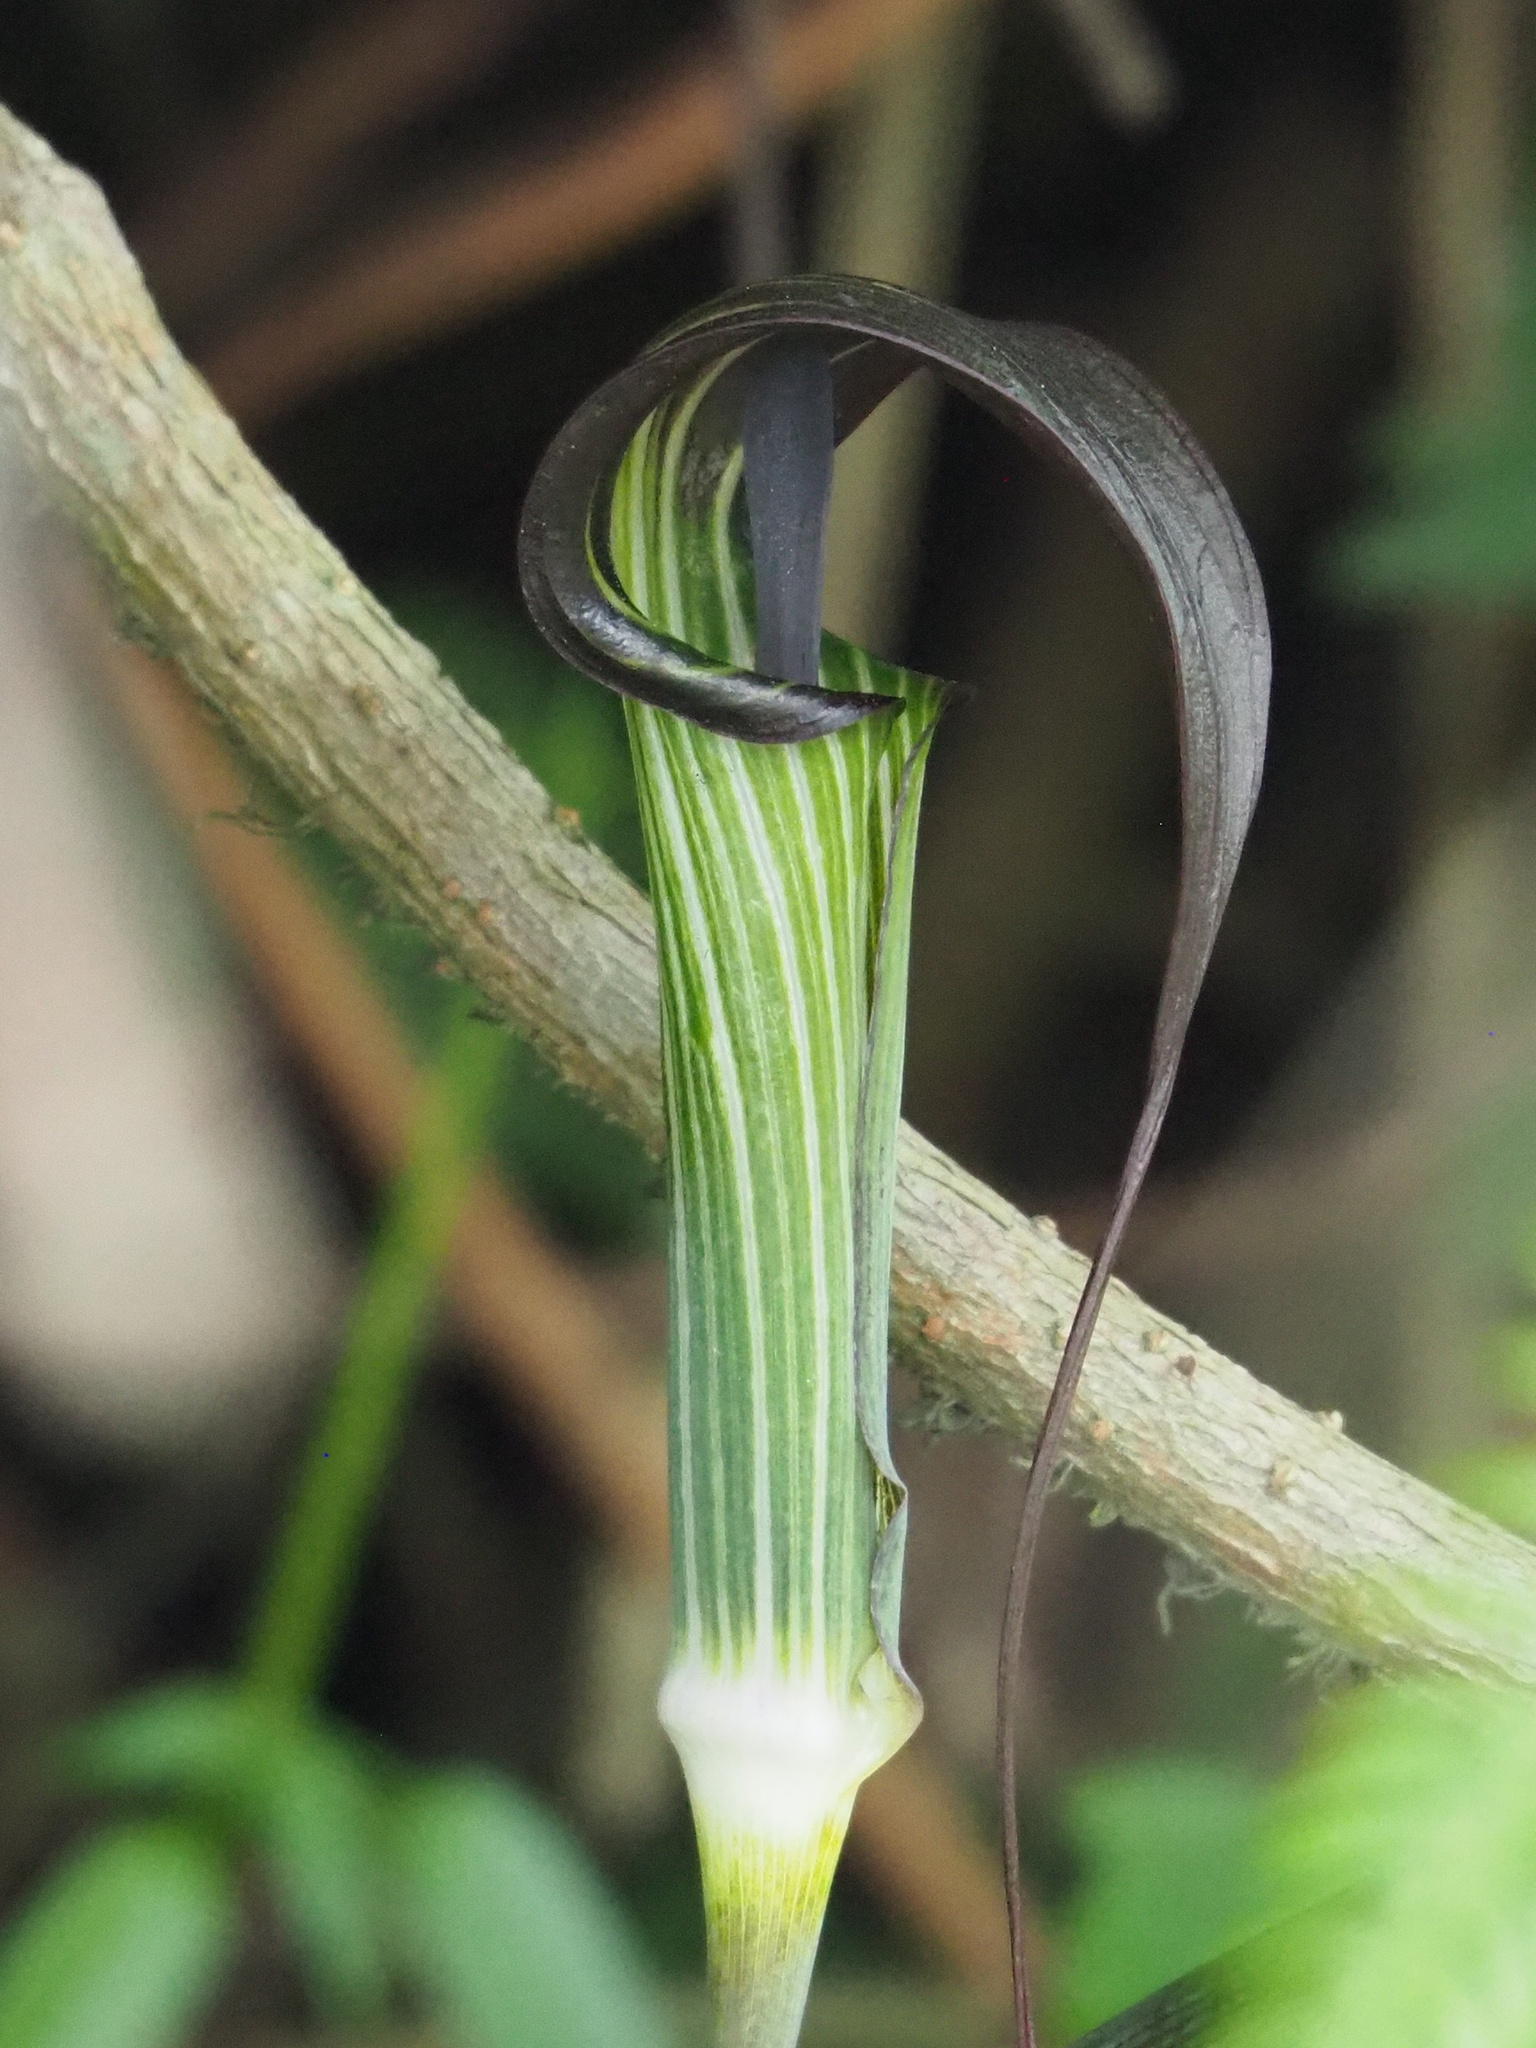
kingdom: Plantae
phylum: Tracheophyta
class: Liliopsida
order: Alismatales
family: Araceae
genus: Arisaema
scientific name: Arisaema consanguineum
